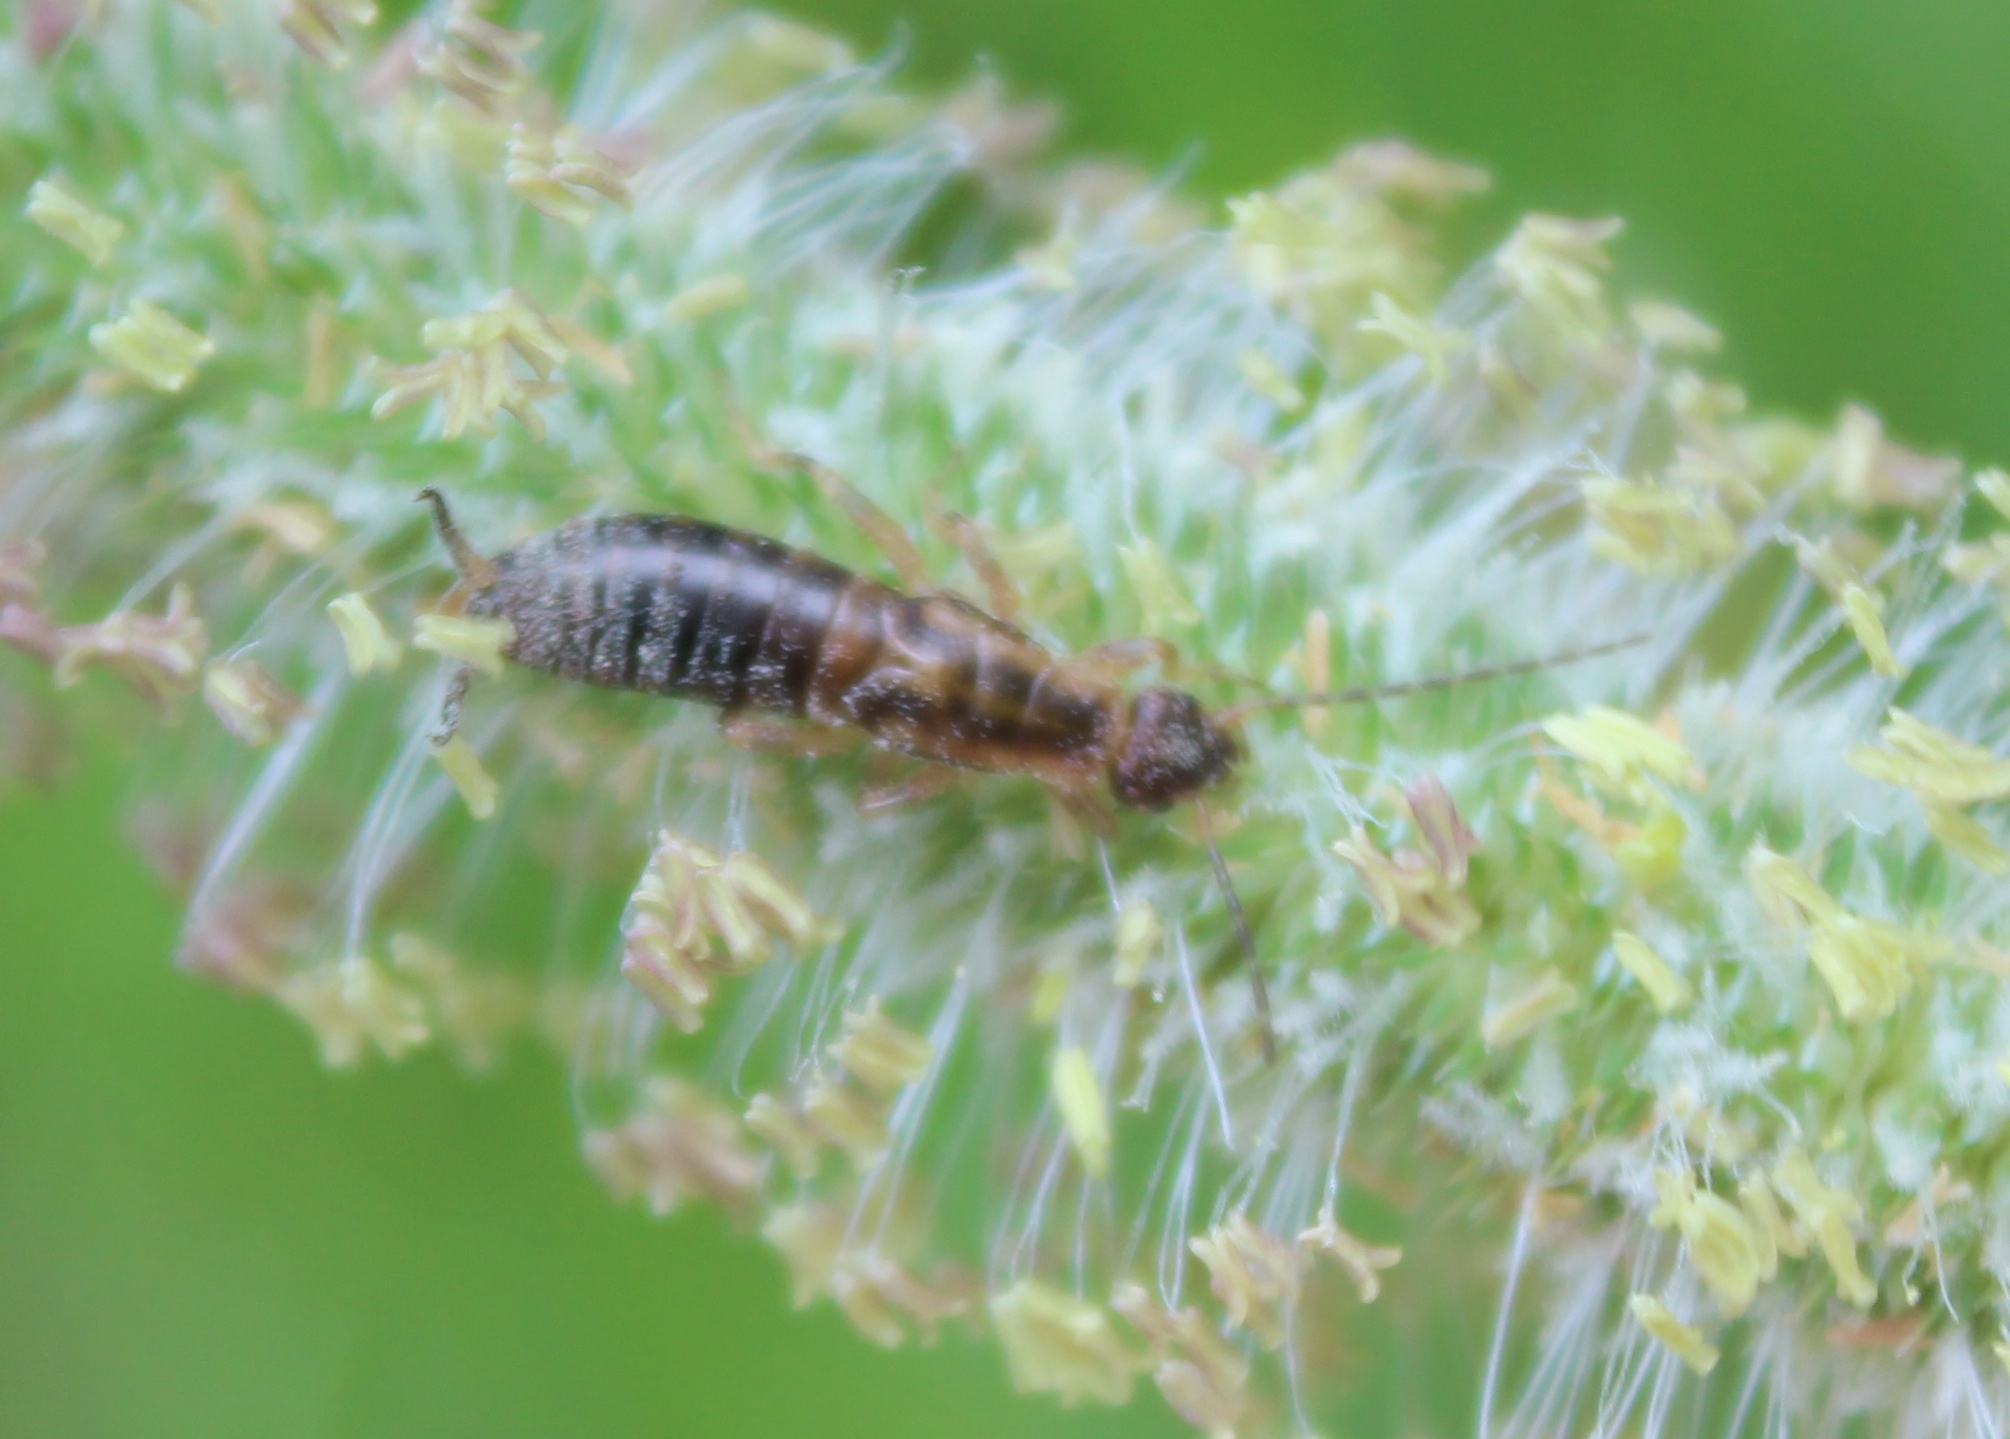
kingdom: Animalia
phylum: Arthropoda
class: Insecta
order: Dermaptera
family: Forficulidae
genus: Forficula
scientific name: Forficula
